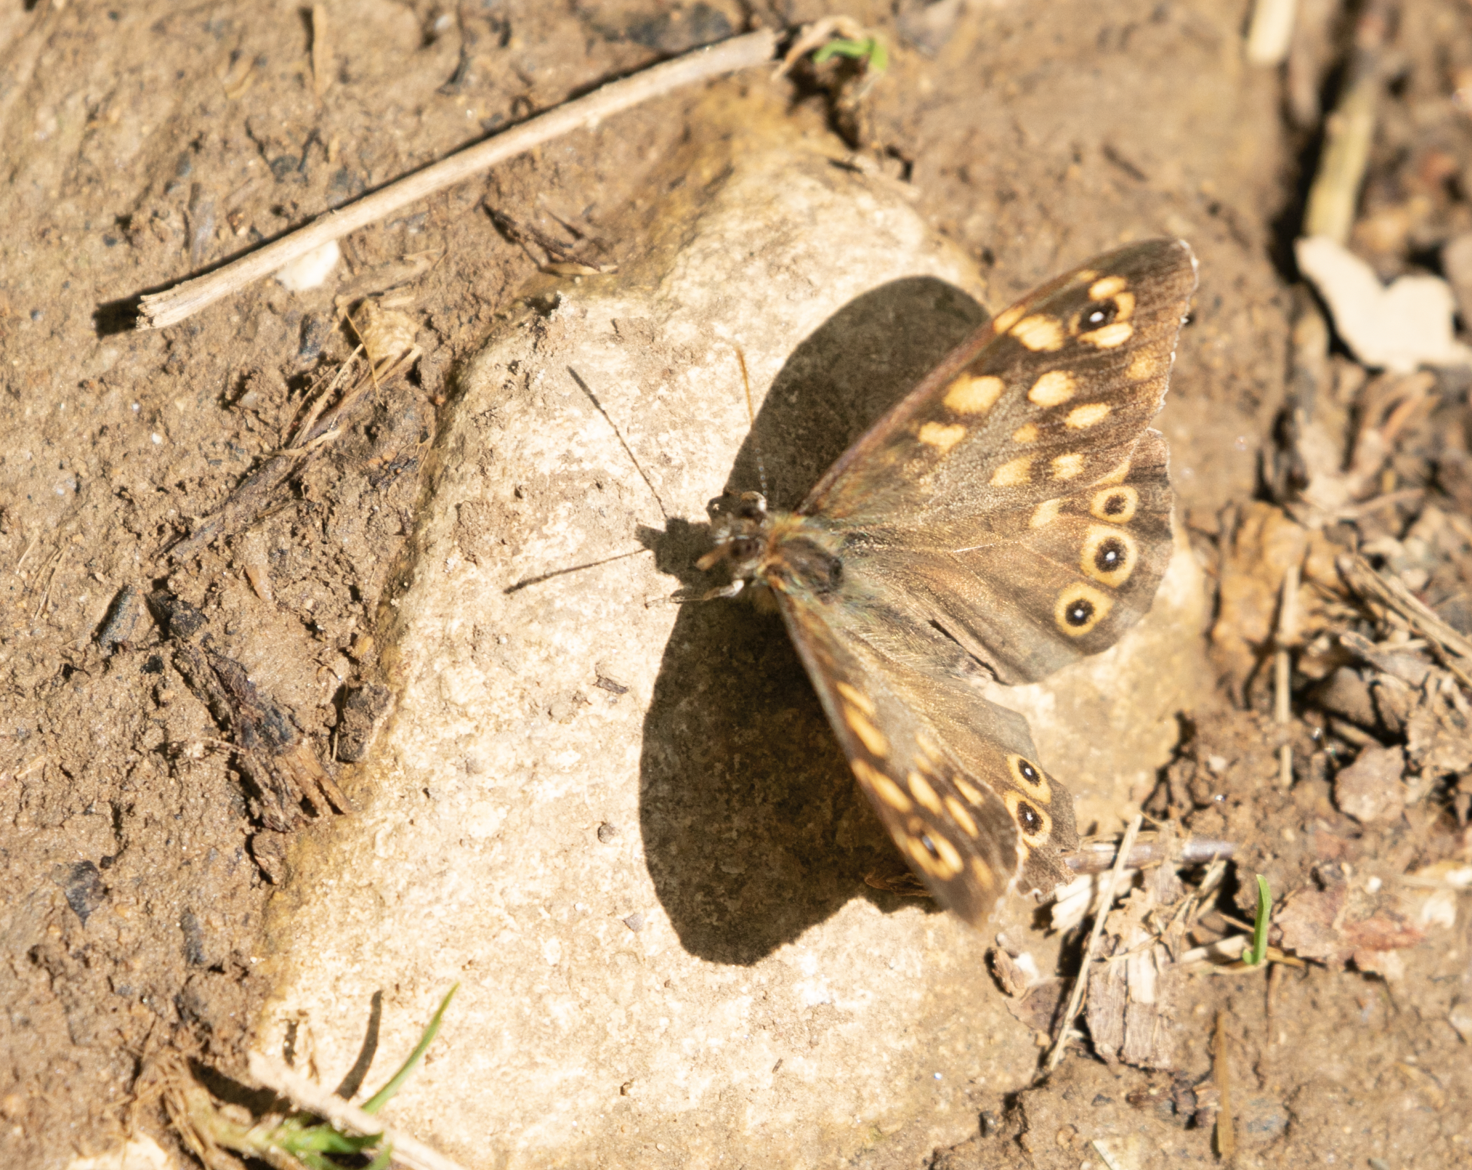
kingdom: Animalia
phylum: Arthropoda
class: Insecta
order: Lepidoptera
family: Nymphalidae
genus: Pararge
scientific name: Pararge aegeria
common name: Speckled wood
